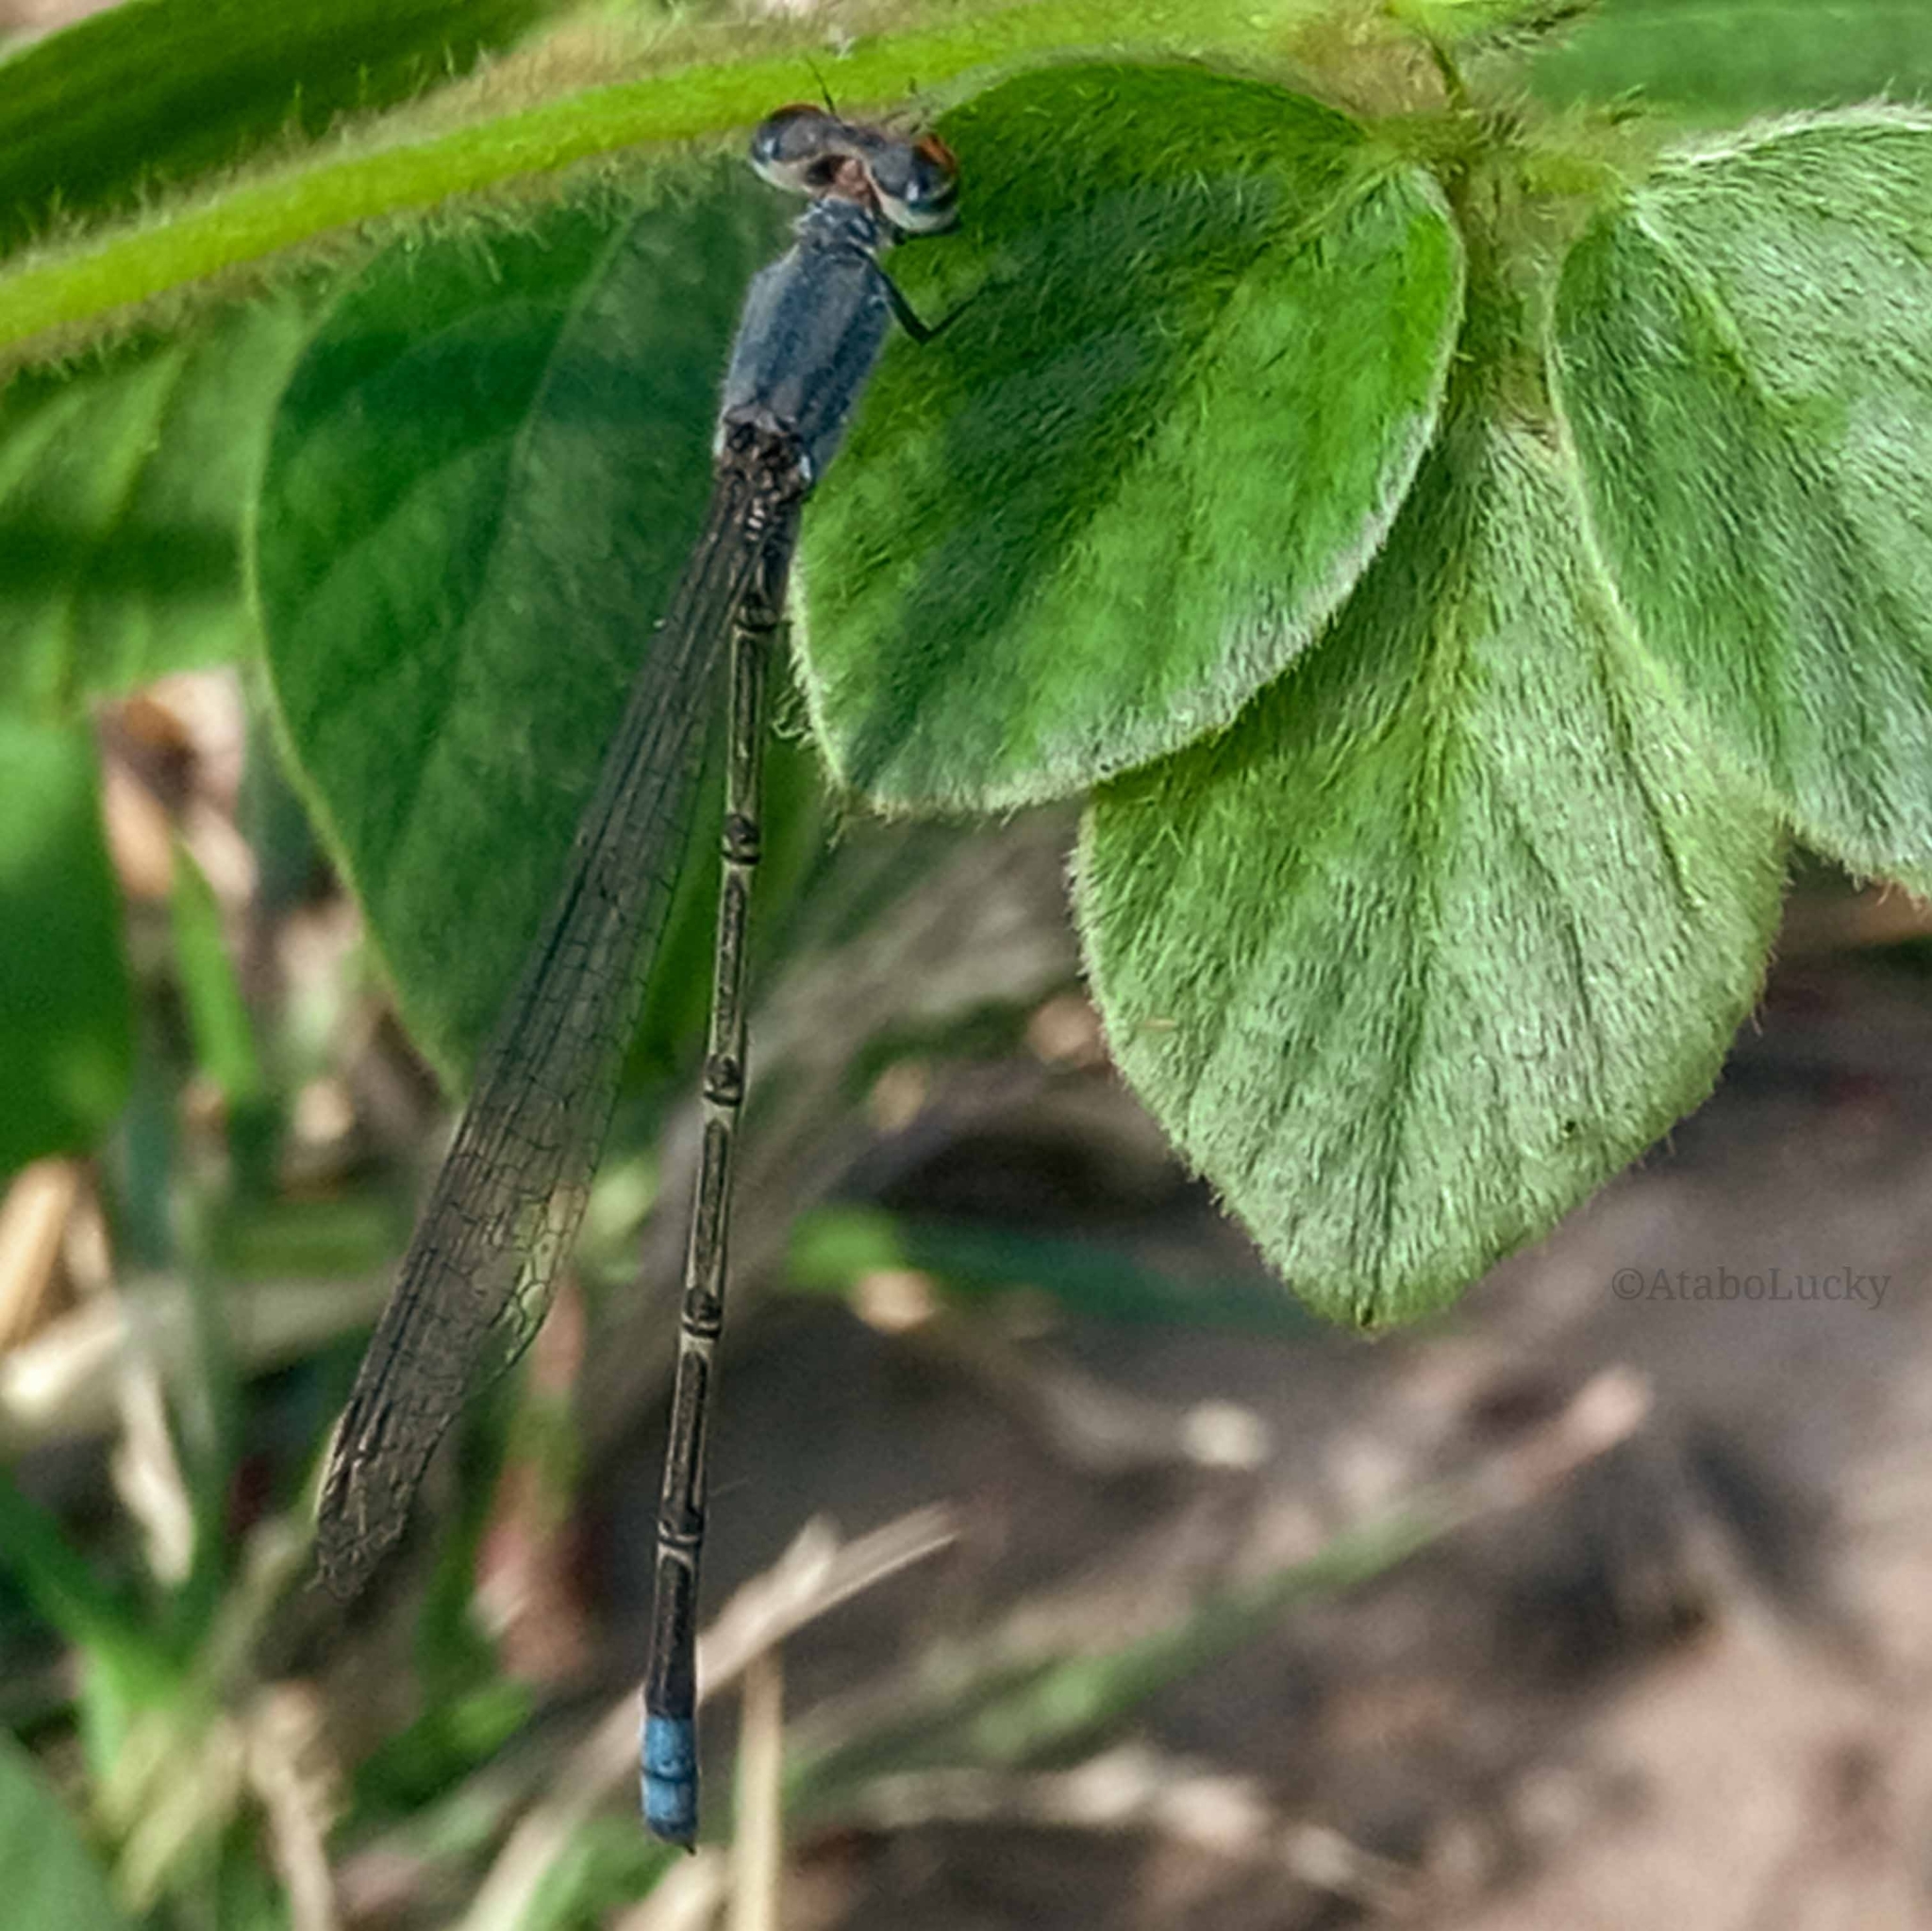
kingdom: Animalia
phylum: Arthropoda
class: Insecta
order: Odonata
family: Coenagrionidae
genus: Pseudagrion
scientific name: Pseudagrion sublacteum
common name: Cherry-eye sprite
